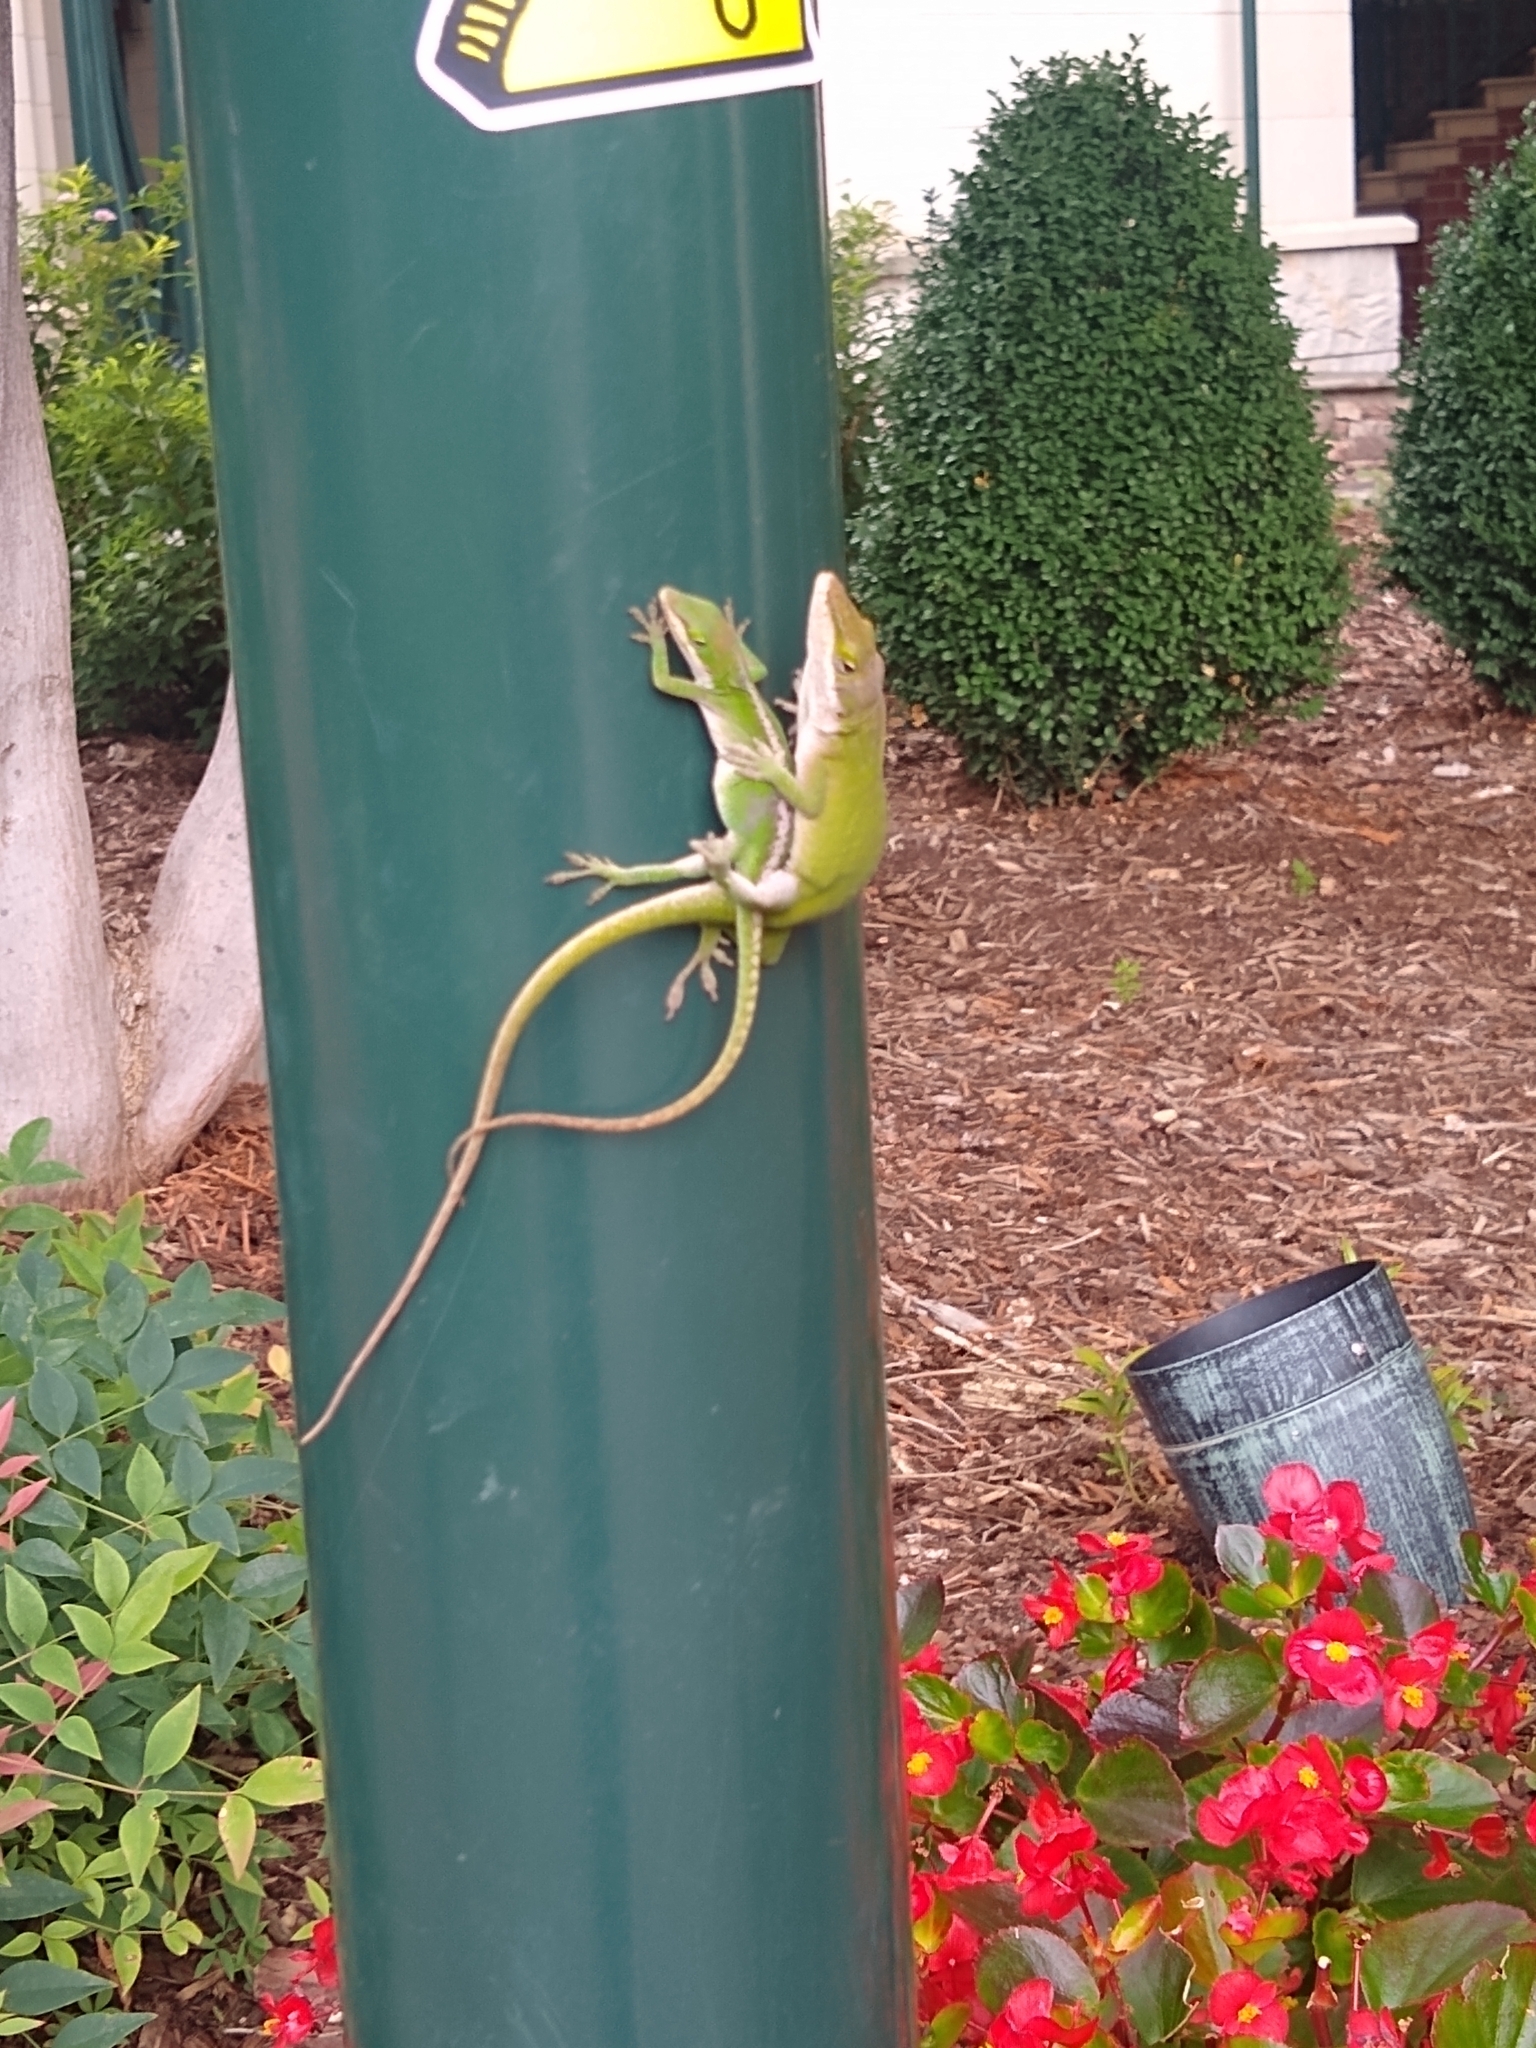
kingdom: Animalia
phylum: Chordata
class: Squamata
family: Dactyloidae
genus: Anolis
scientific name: Anolis carolinensis
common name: Green anole
